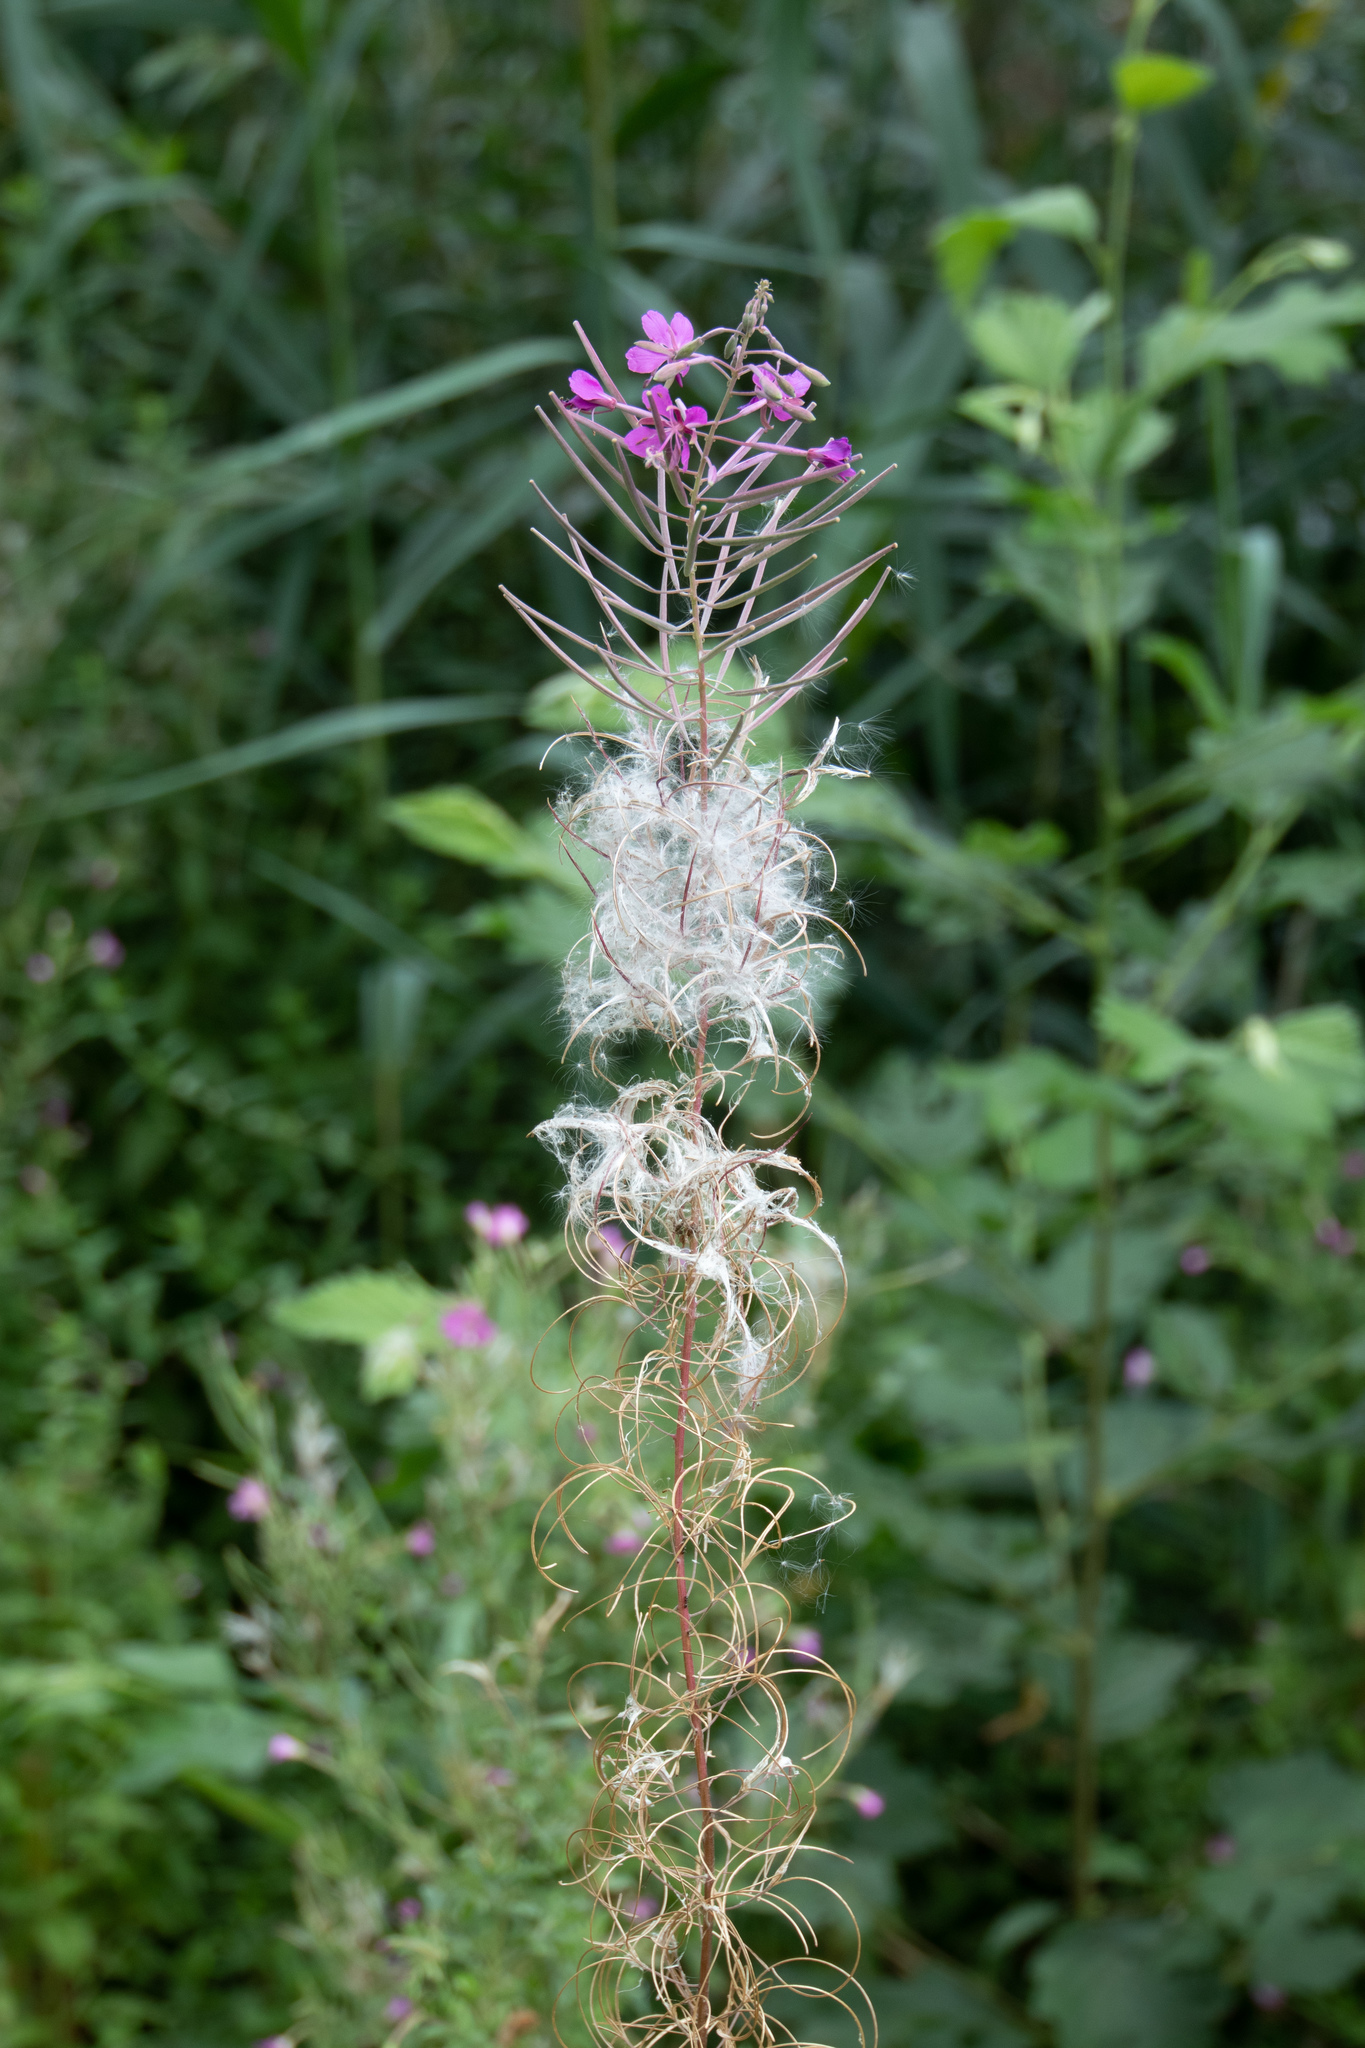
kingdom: Plantae
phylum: Tracheophyta
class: Magnoliopsida
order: Myrtales
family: Onagraceae
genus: Chamaenerion
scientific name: Chamaenerion angustifolium
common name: Fireweed
